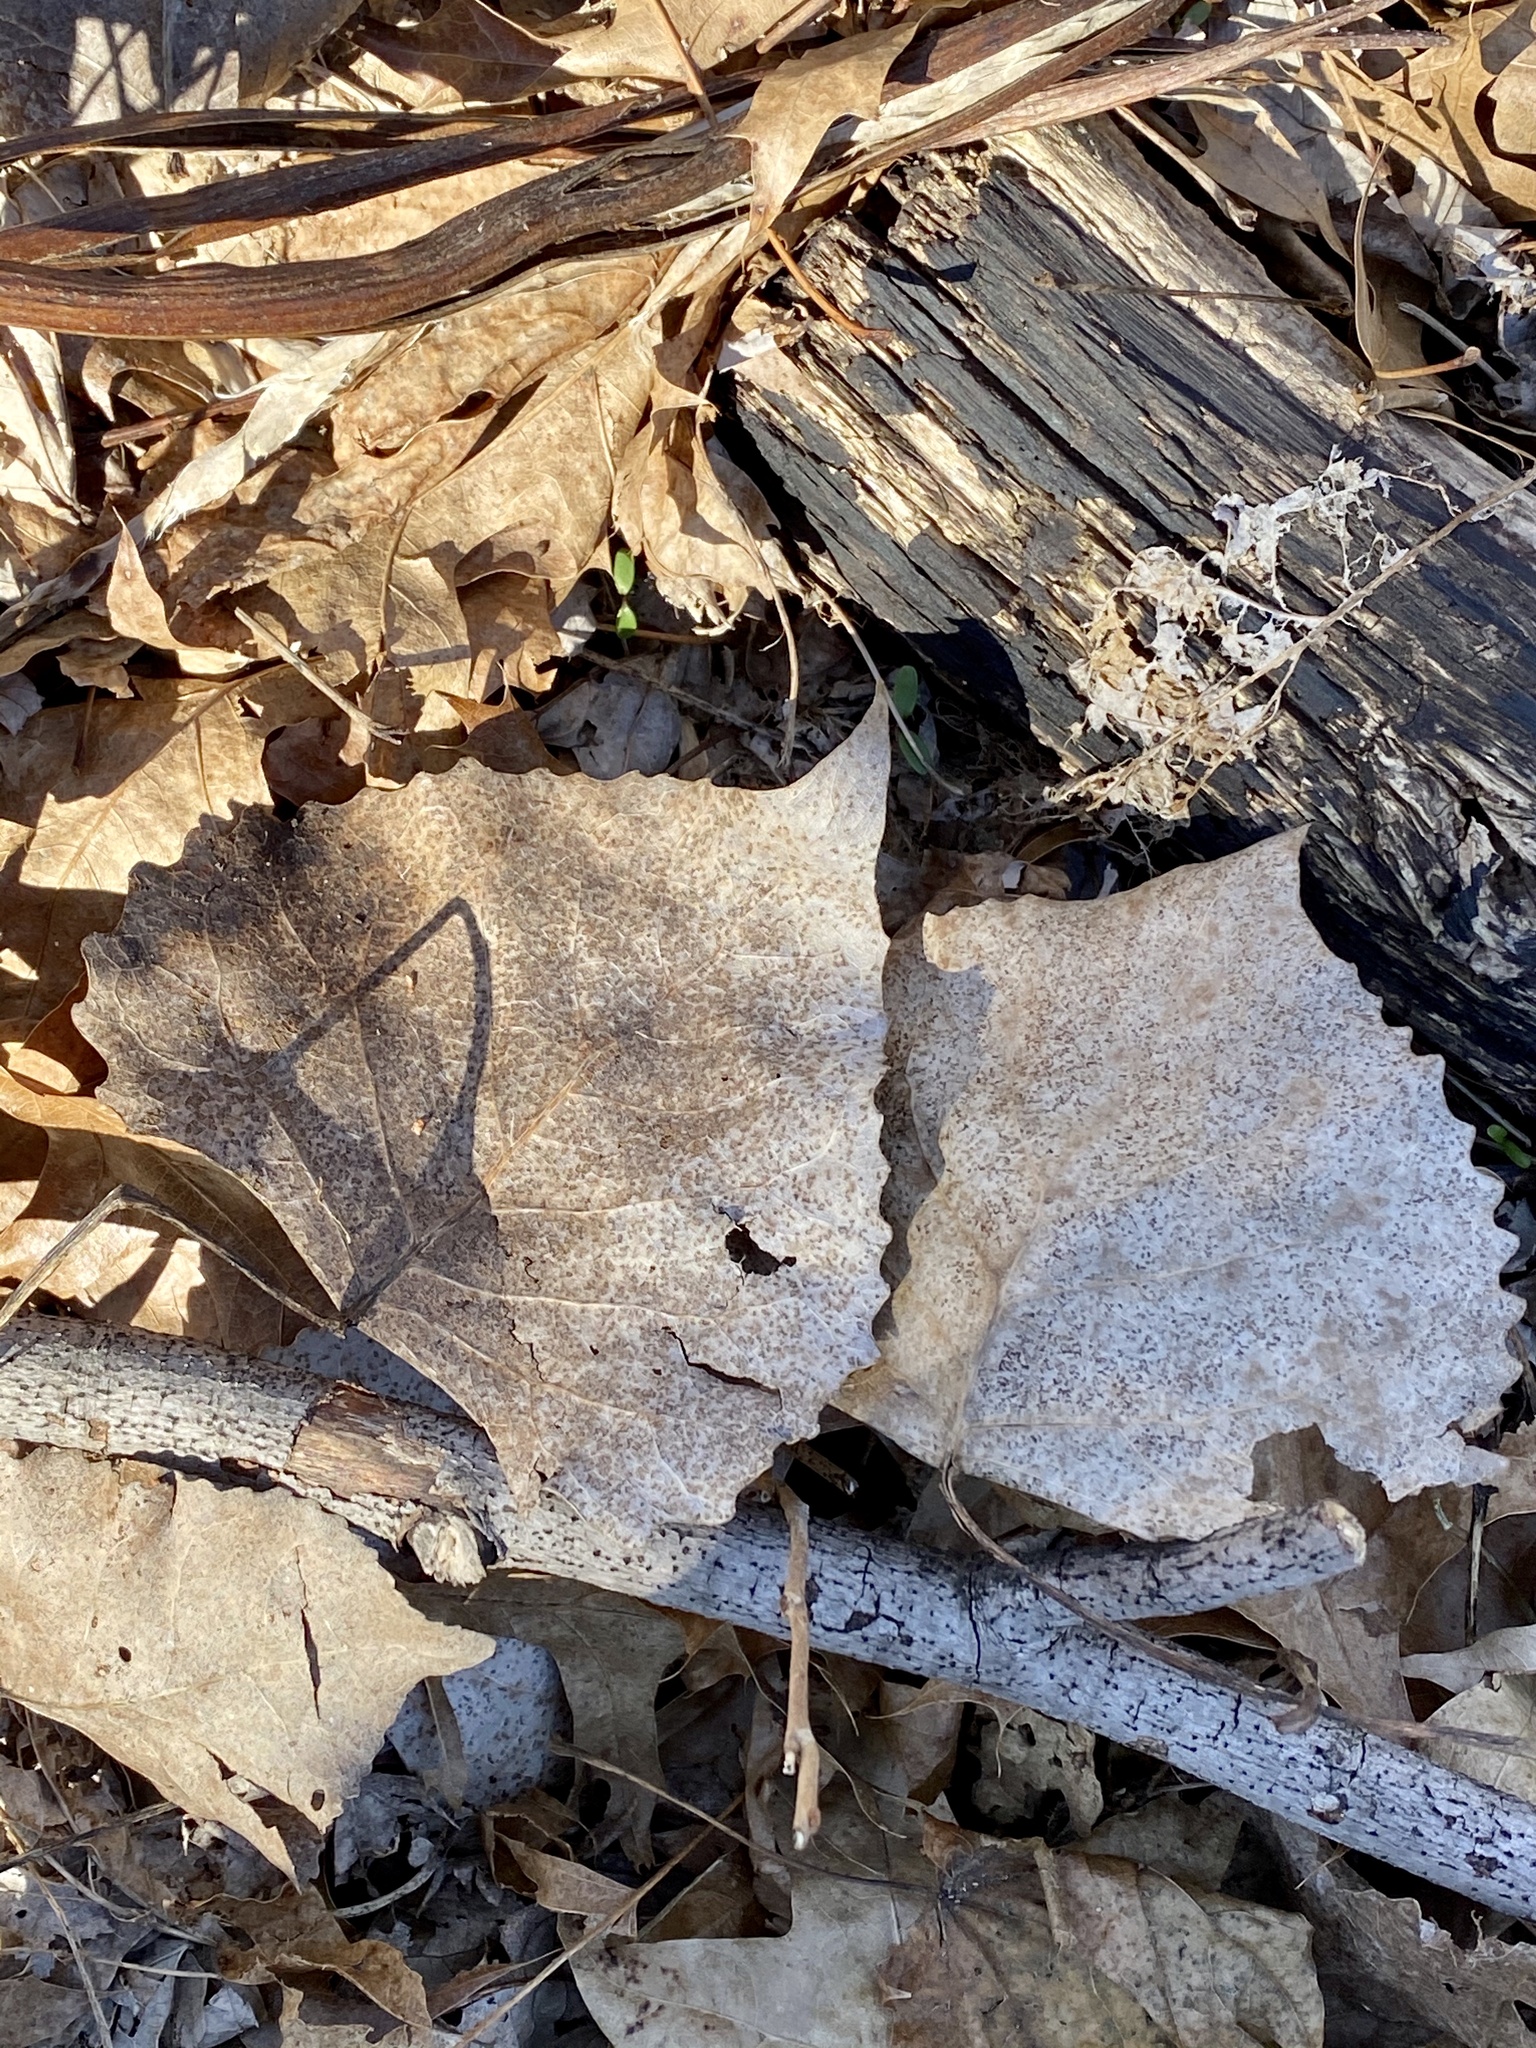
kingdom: Plantae
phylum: Tracheophyta
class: Magnoliopsida
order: Malpighiales
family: Salicaceae
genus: Populus
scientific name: Populus deltoides
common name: Eastern cottonwood
